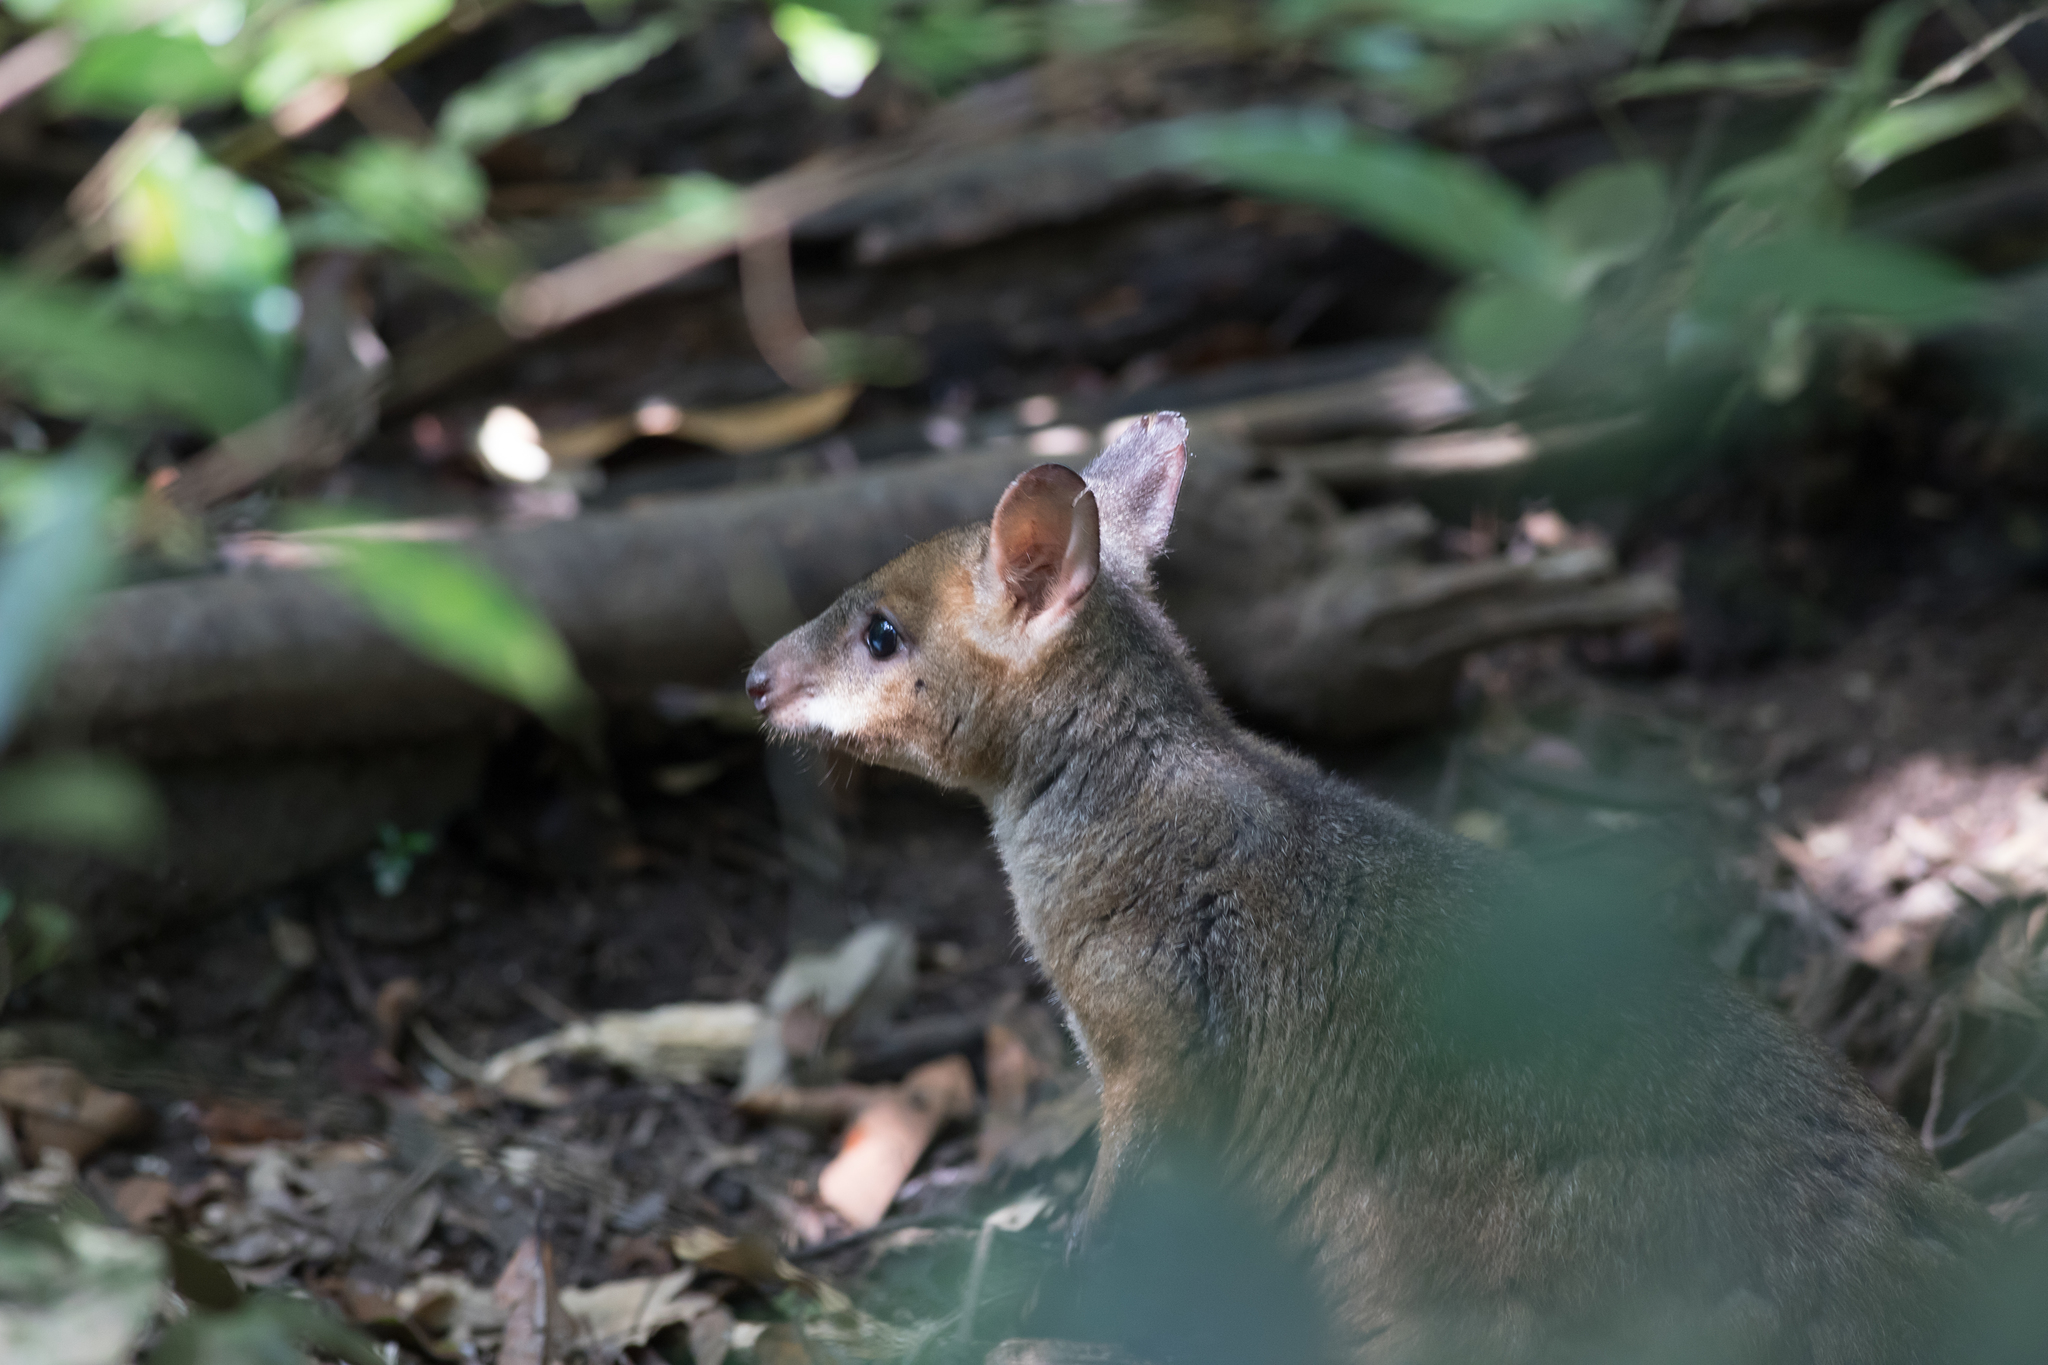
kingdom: Animalia
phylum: Chordata
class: Mammalia
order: Diprotodontia
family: Macropodidae
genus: Thylogale
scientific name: Thylogale stigmatica
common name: Red-legged pademelon
